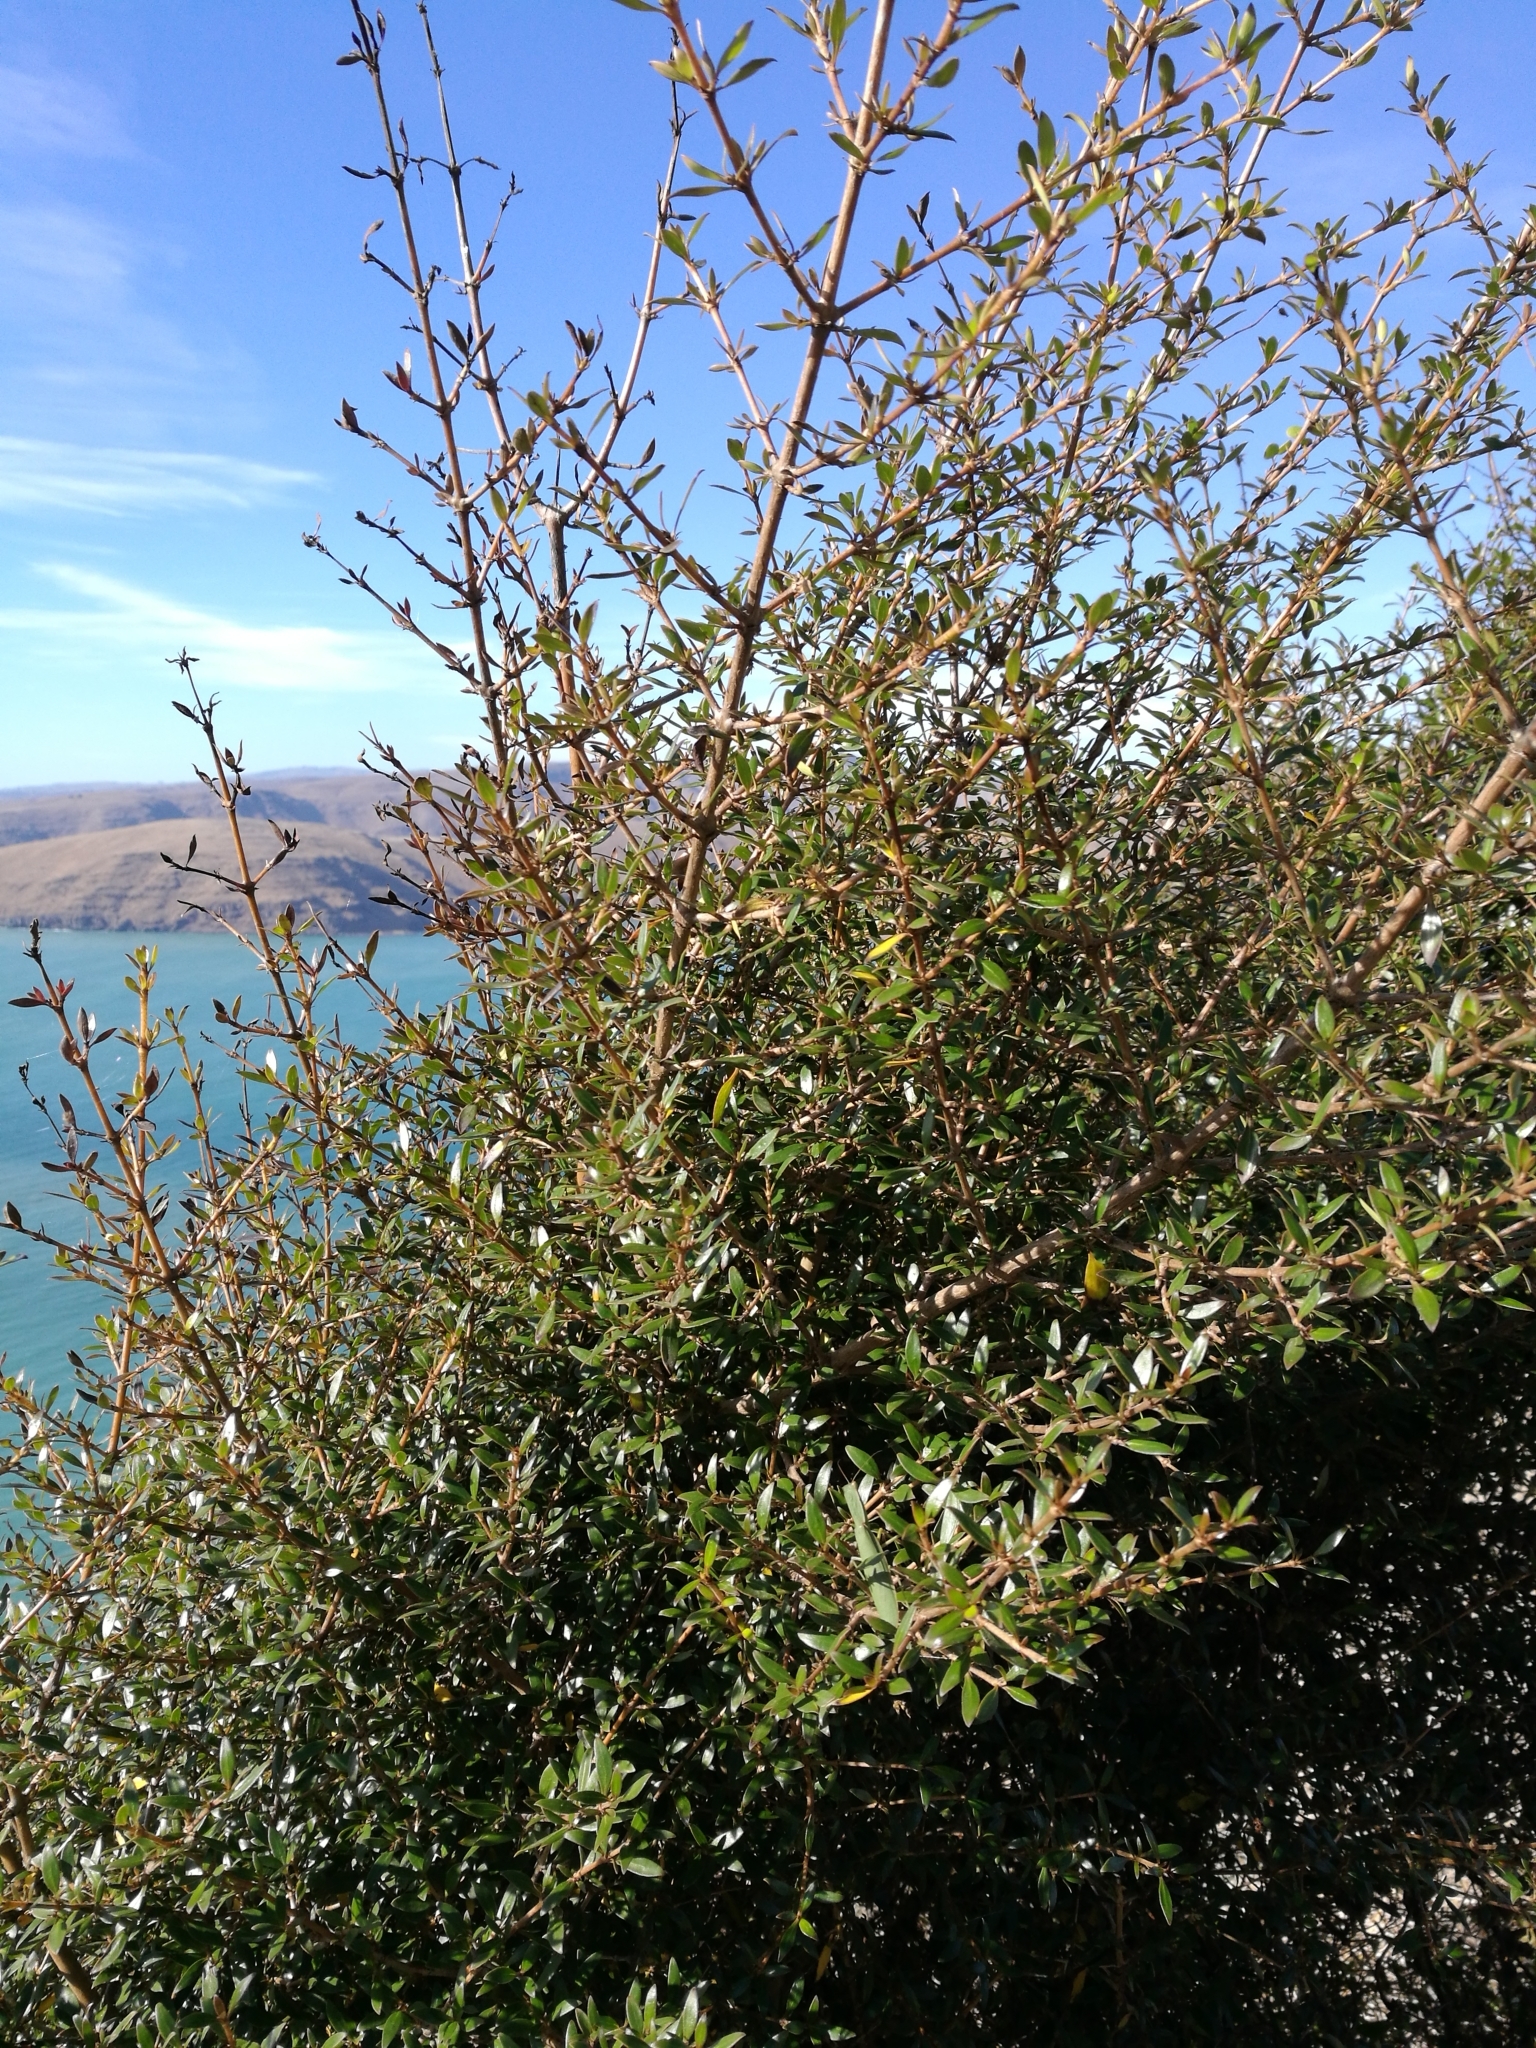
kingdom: Plantae
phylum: Tracheophyta
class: Magnoliopsida
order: Gentianales
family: Rubiaceae
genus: Coprosma
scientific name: Coprosma cunninghamii
